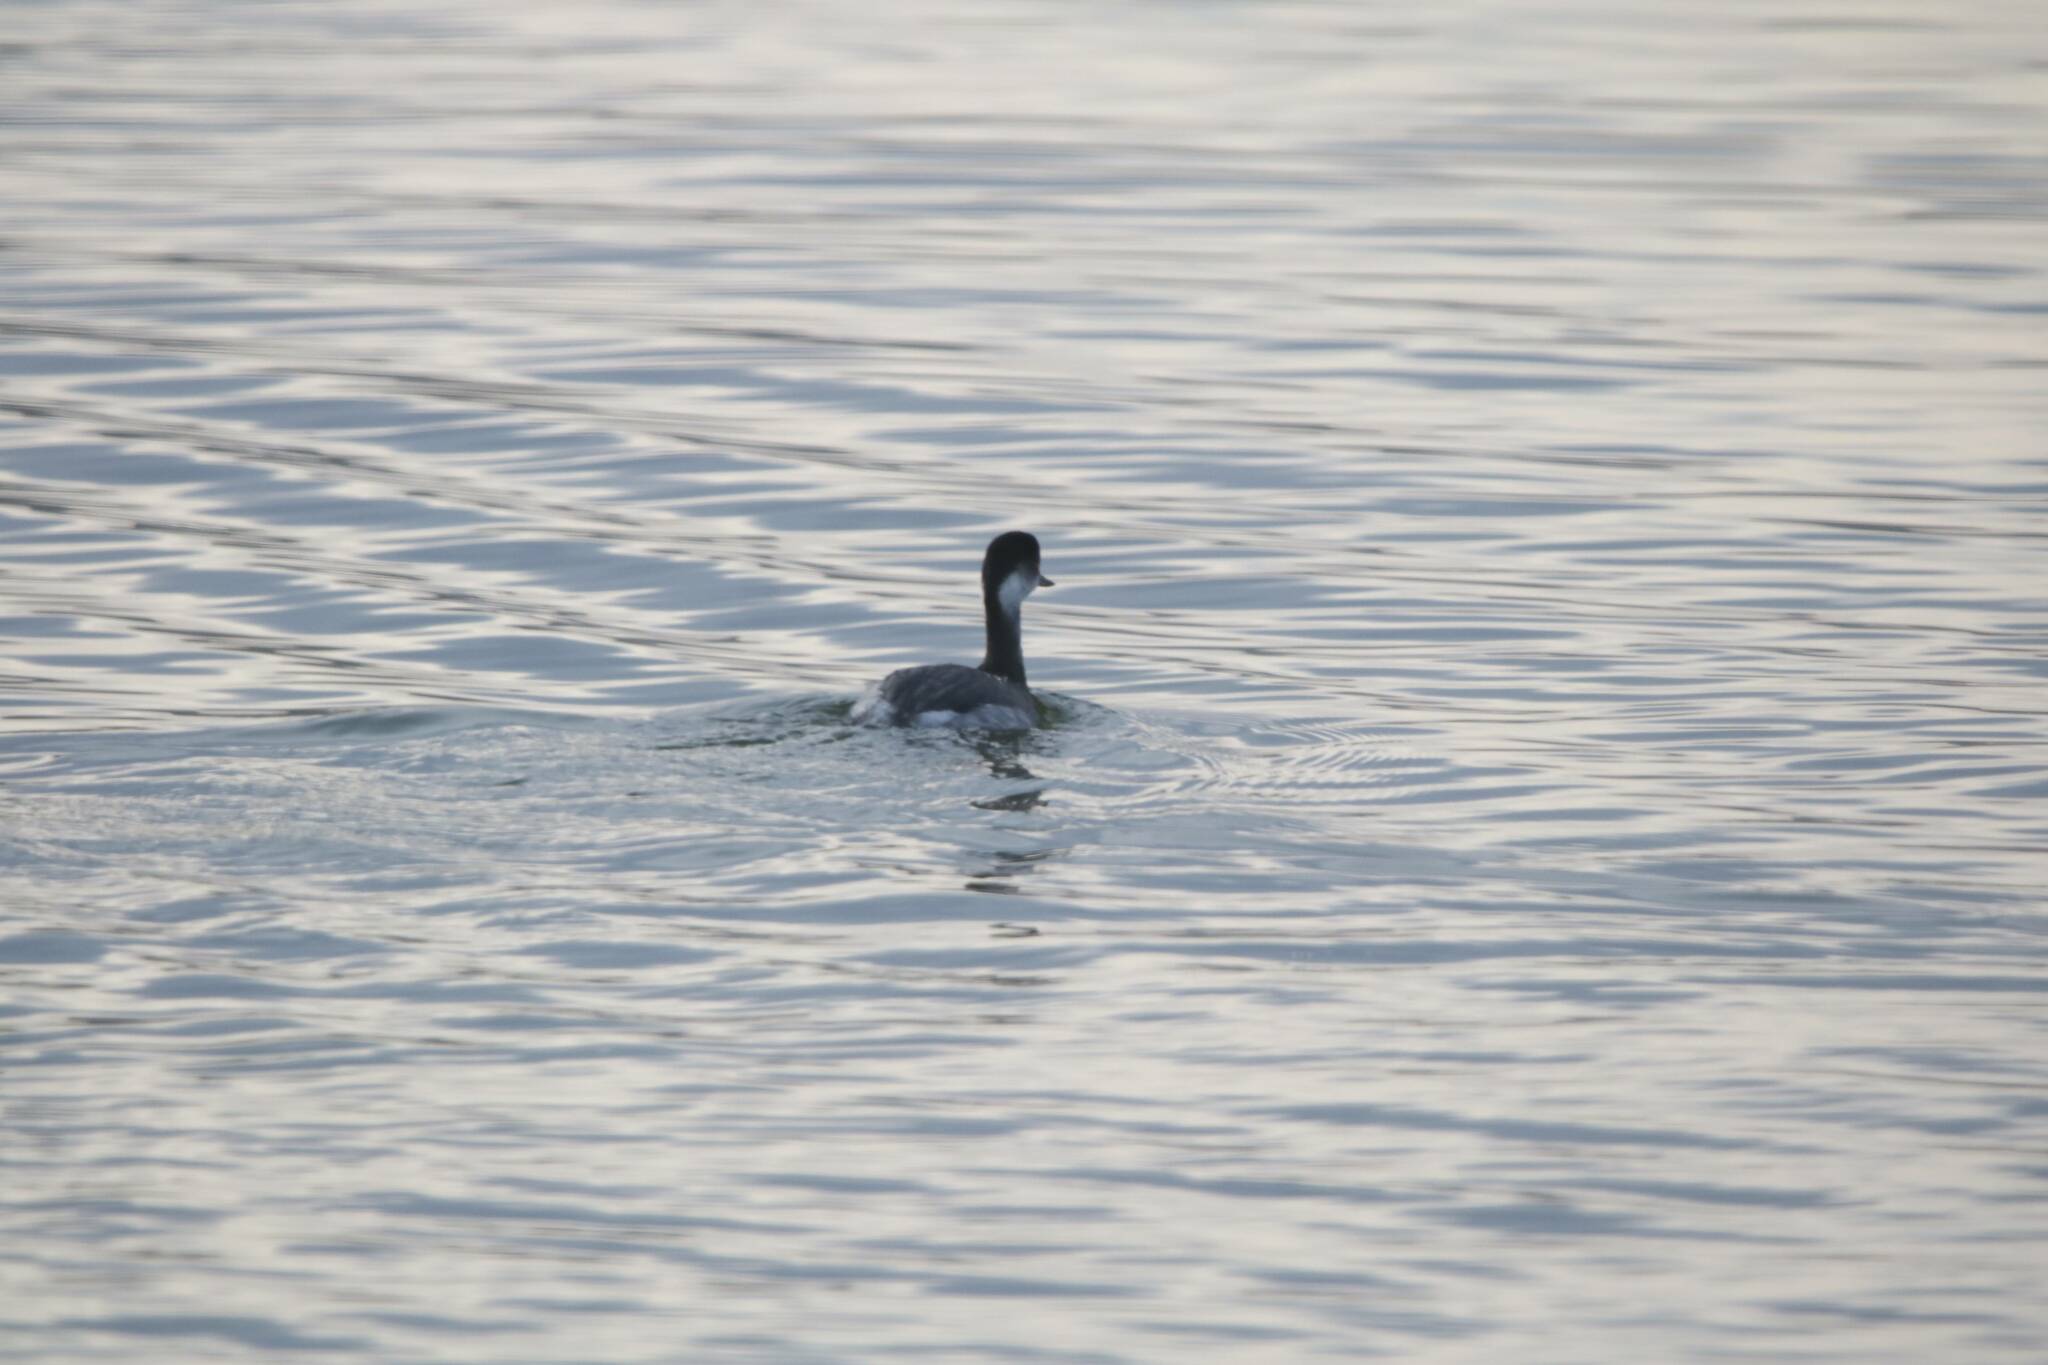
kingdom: Animalia
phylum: Chordata
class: Aves
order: Podicipediformes
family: Podicipedidae
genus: Podiceps
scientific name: Podiceps nigricollis
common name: Black-necked grebe
